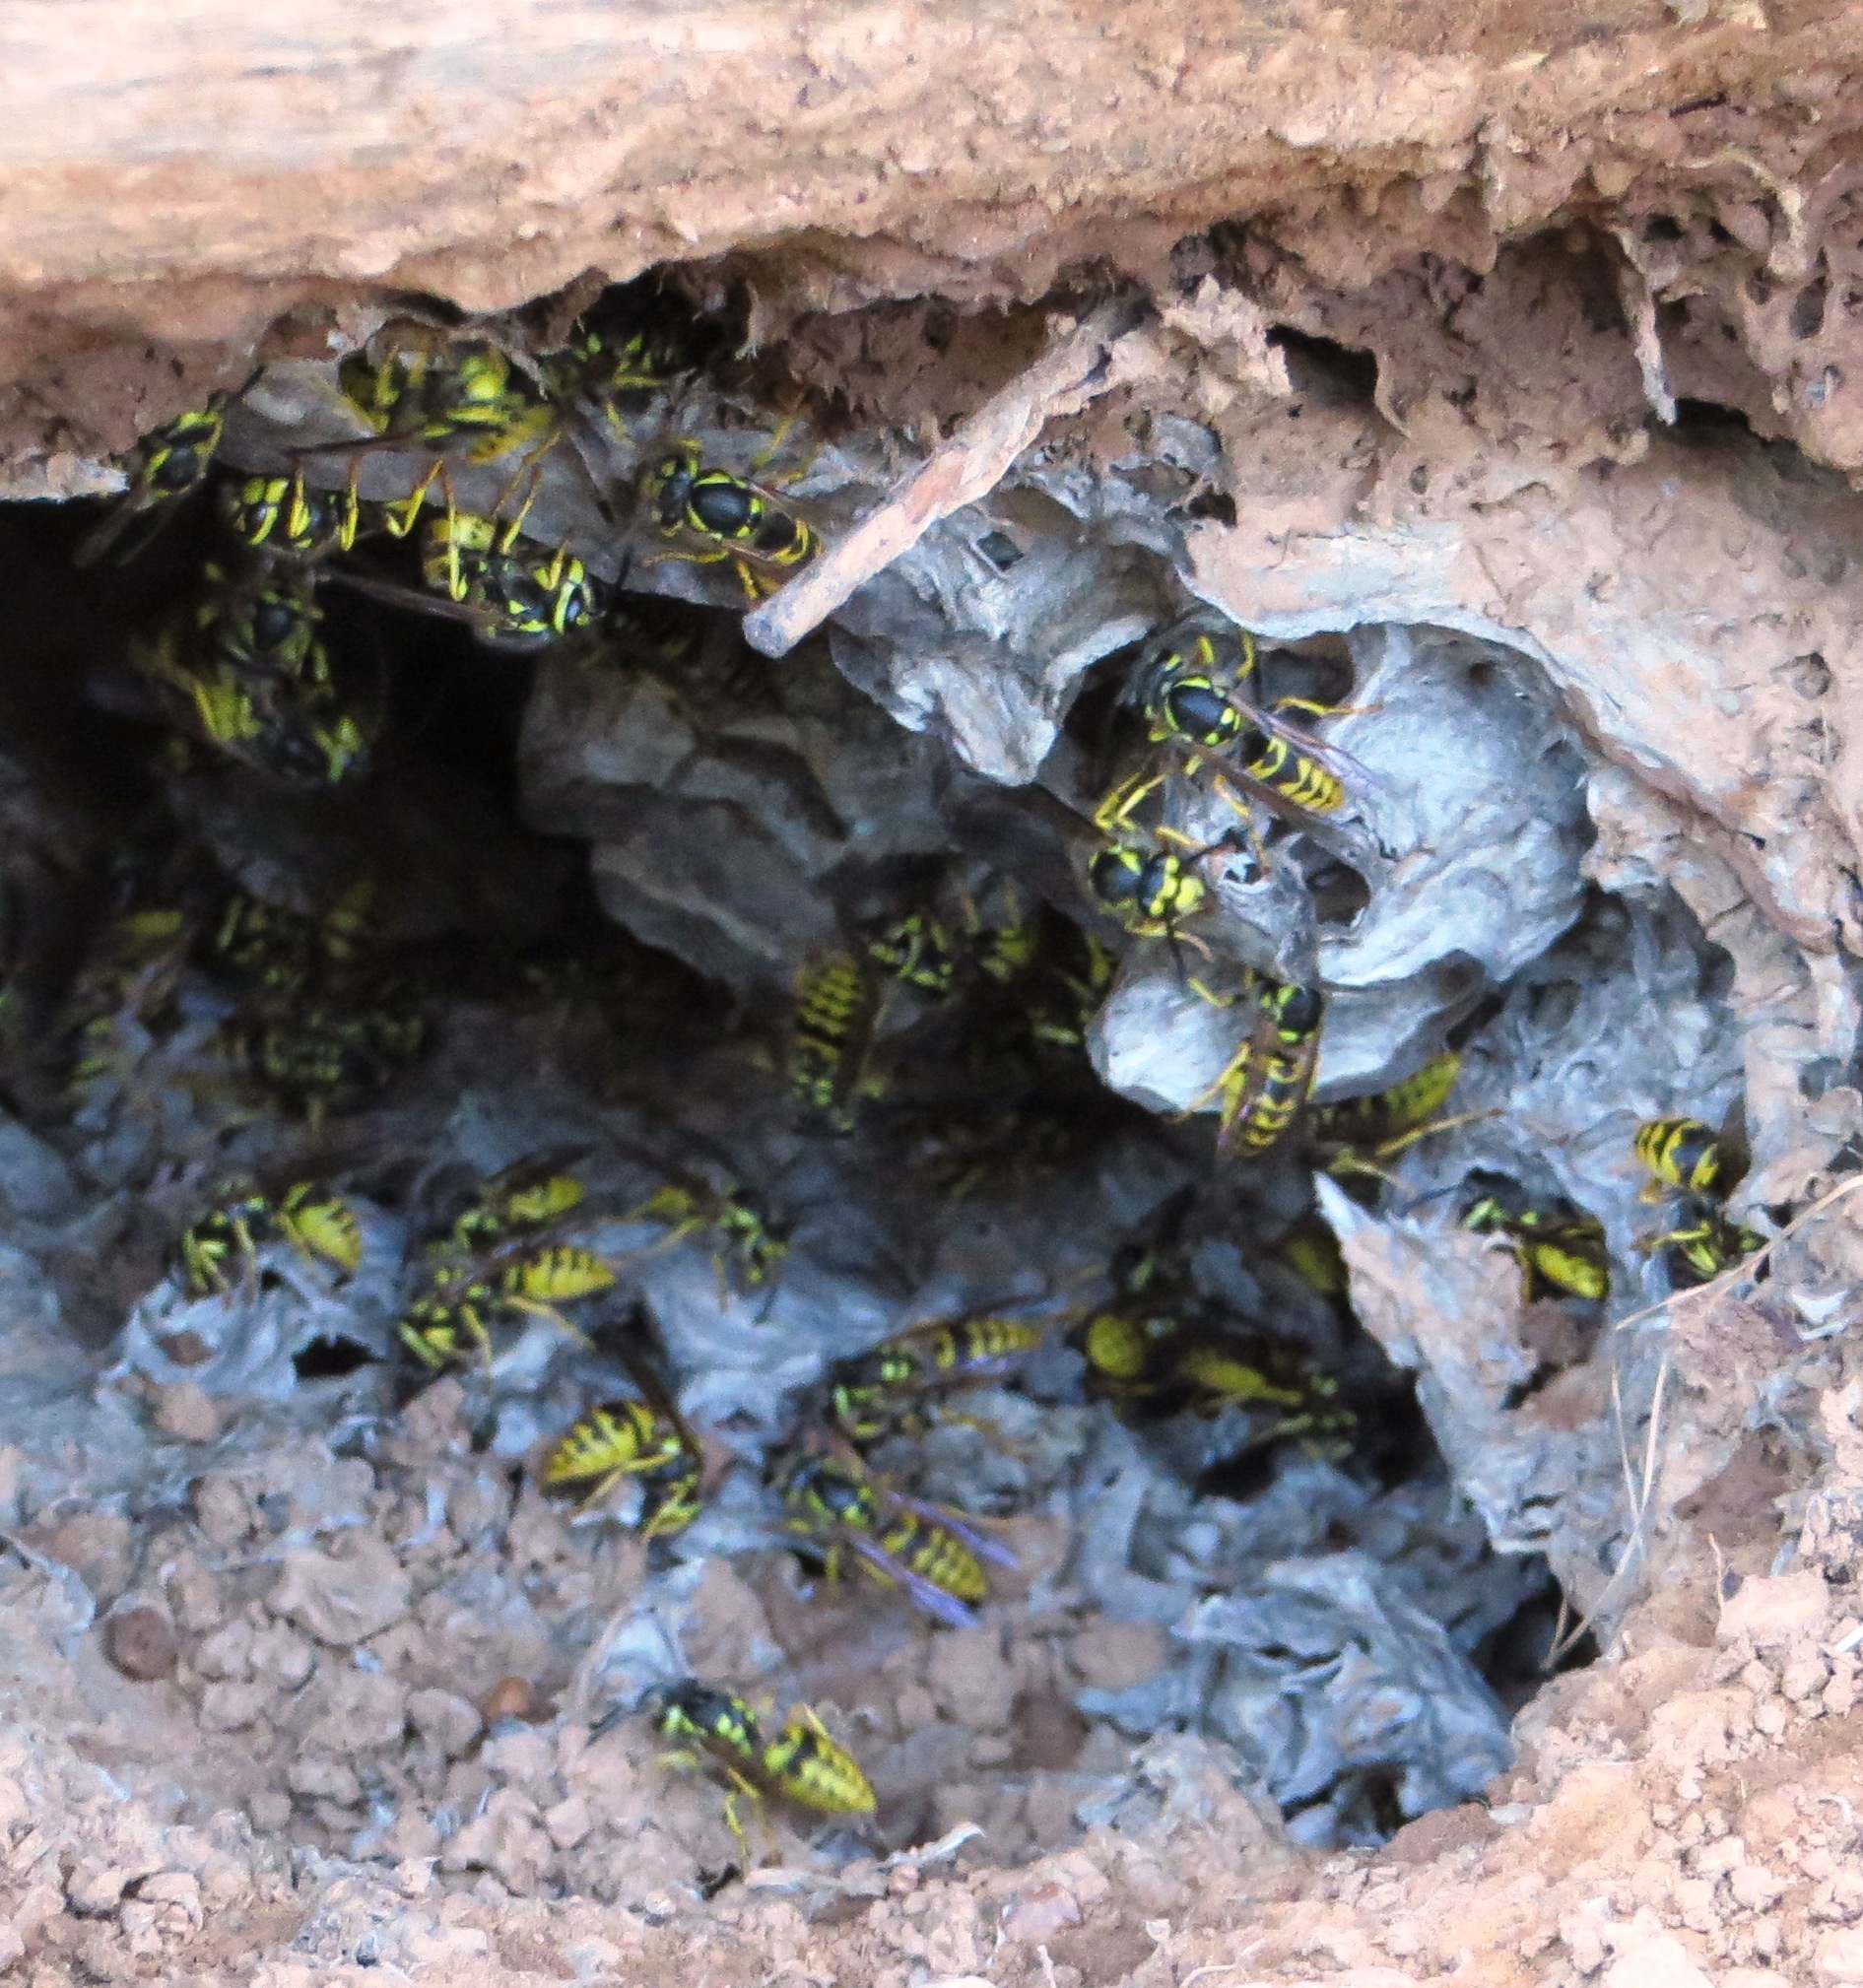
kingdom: Animalia
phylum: Arthropoda
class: Insecta
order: Hymenoptera
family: Vespidae
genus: Vespula
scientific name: Vespula germanica
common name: German wasp
